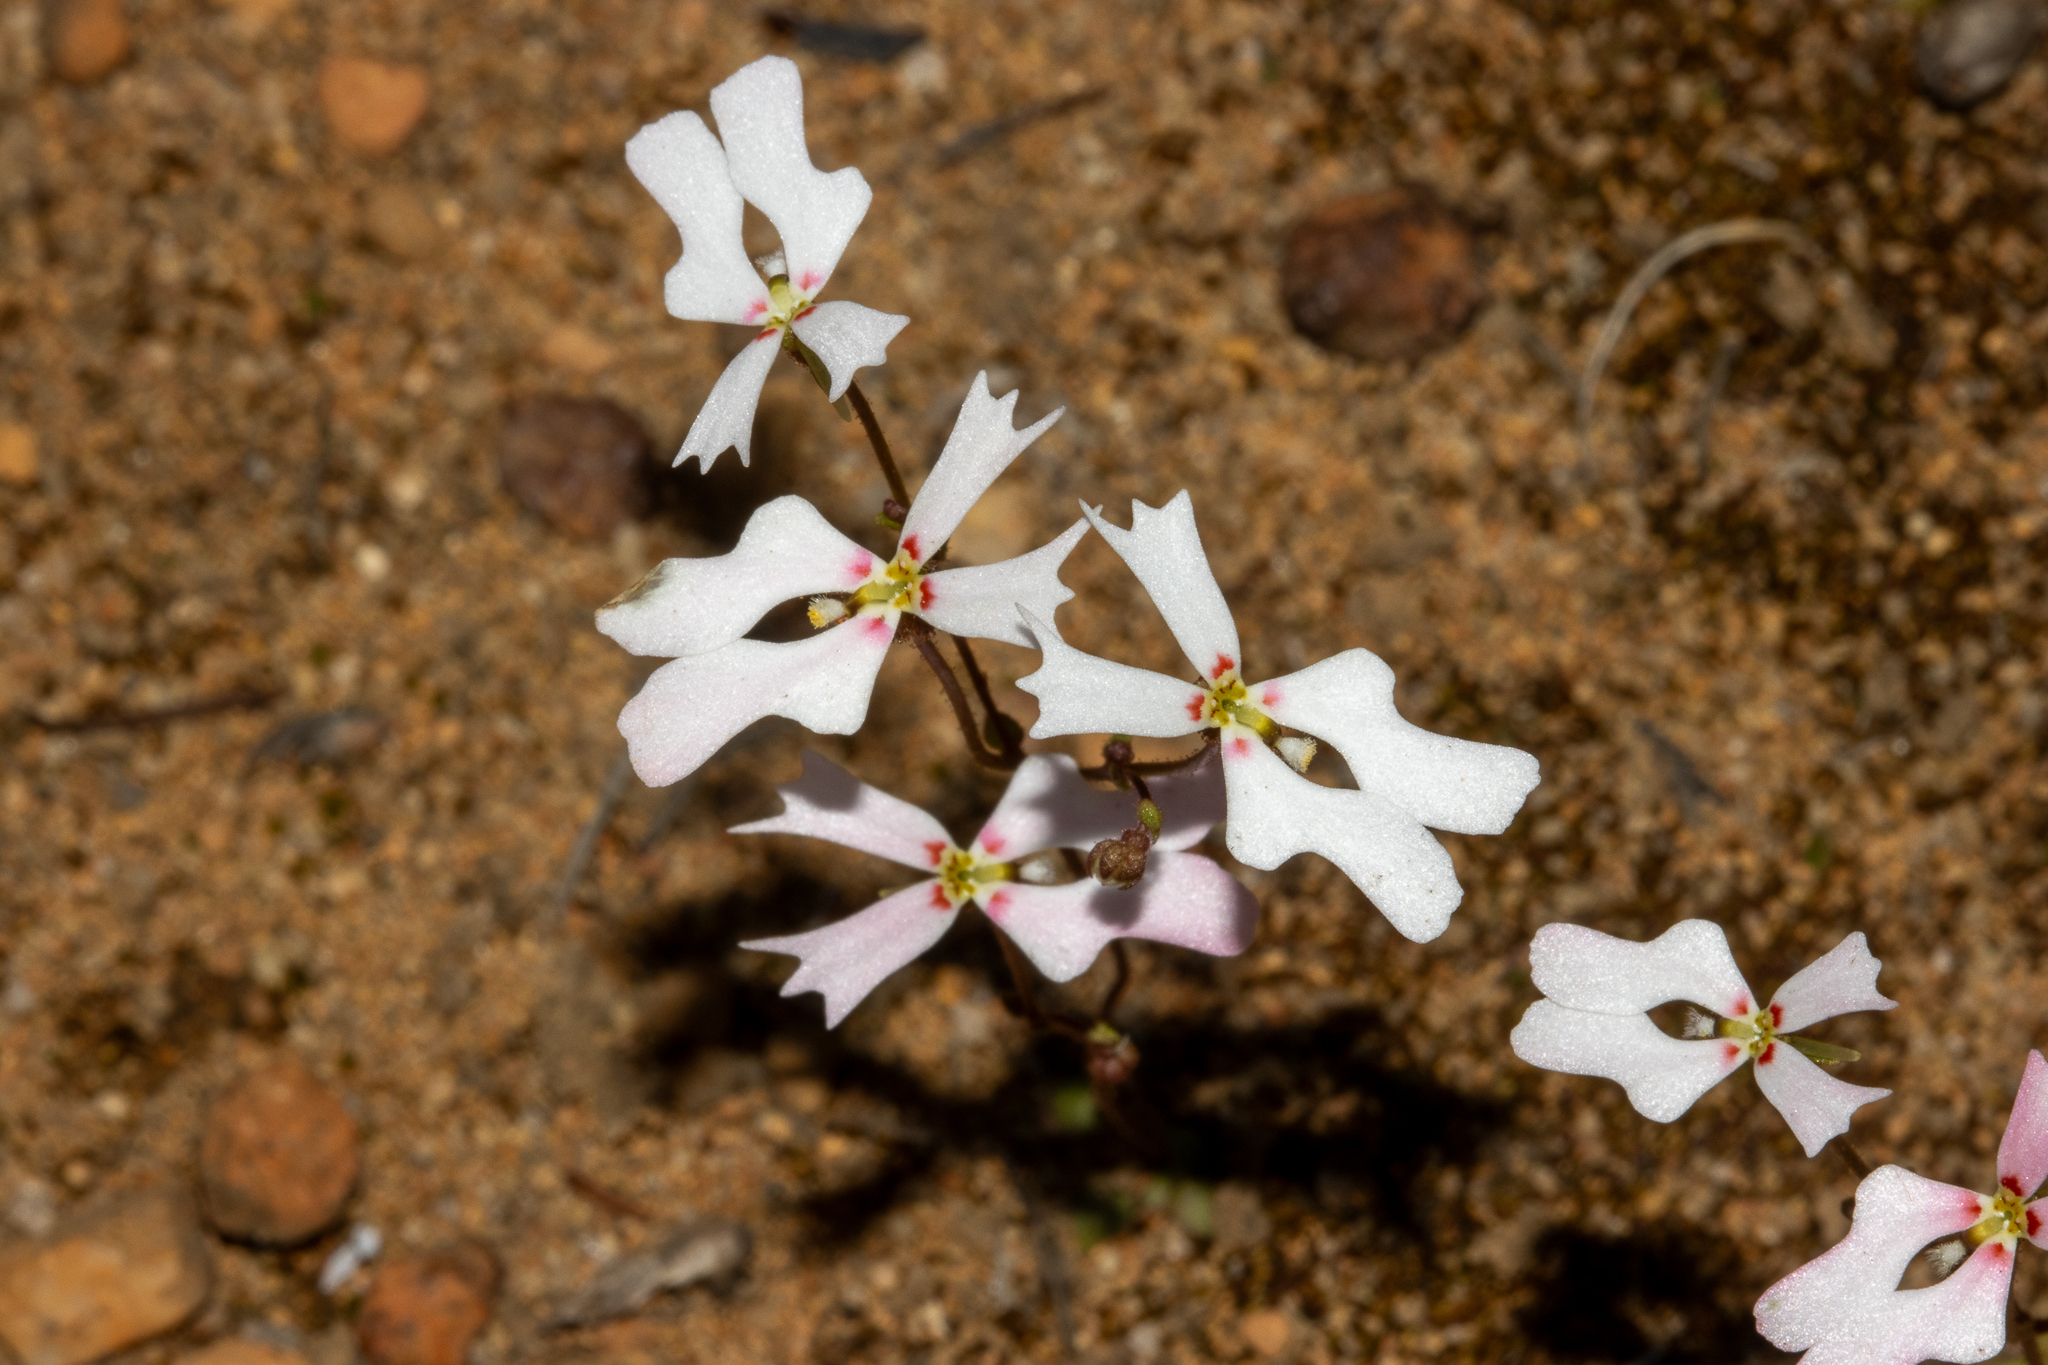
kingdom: Plantae
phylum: Tracheophyta
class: Magnoliopsida
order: Asterales
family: Stylidiaceae
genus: Stylidium
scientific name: Stylidium androsaceum
